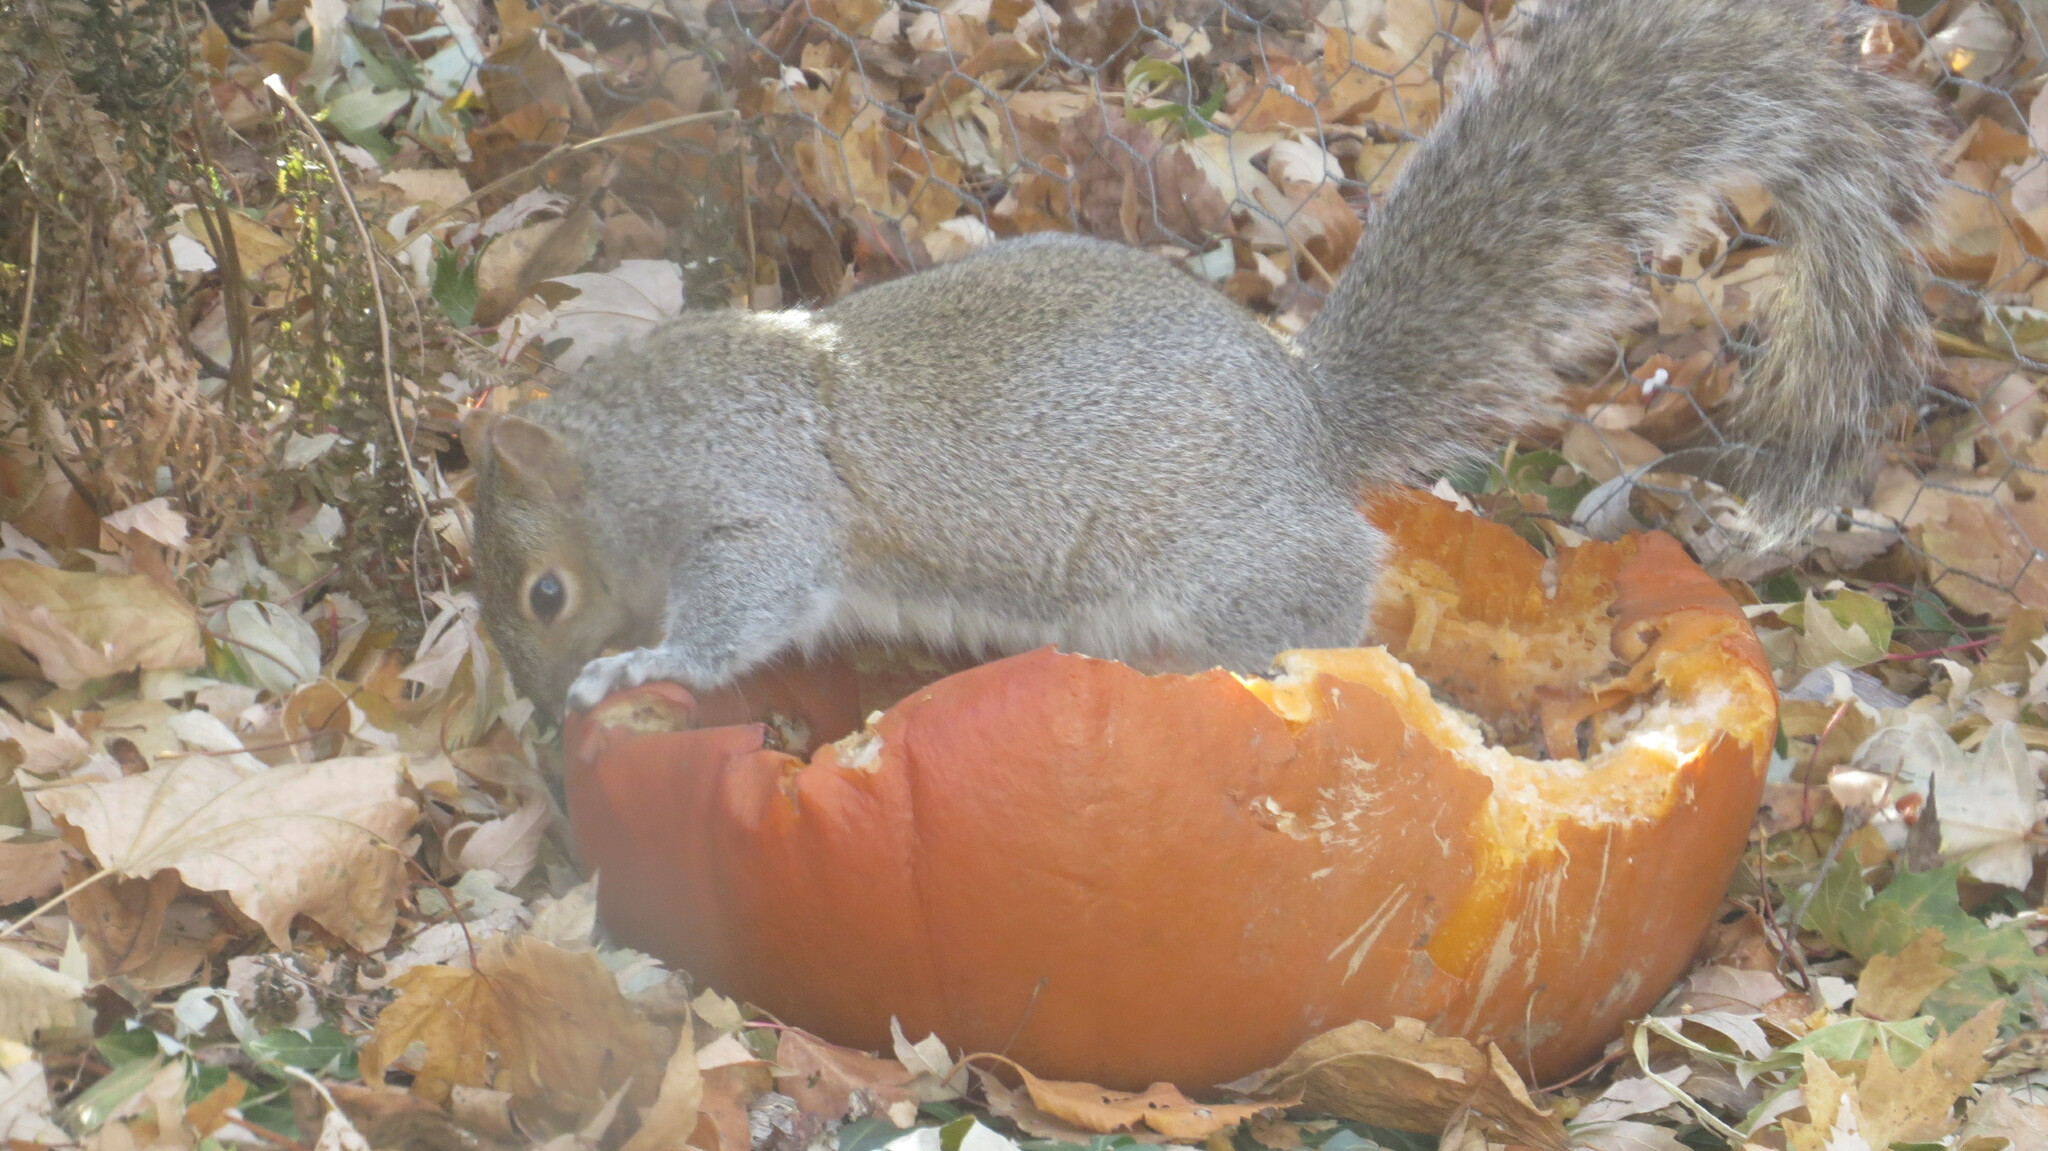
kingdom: Animalia
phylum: Chordata
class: Mammalia
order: Rodentia
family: Sciuridae
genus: Sciurus
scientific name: Sciurus carolinensis
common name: Eastern gray squirrel
